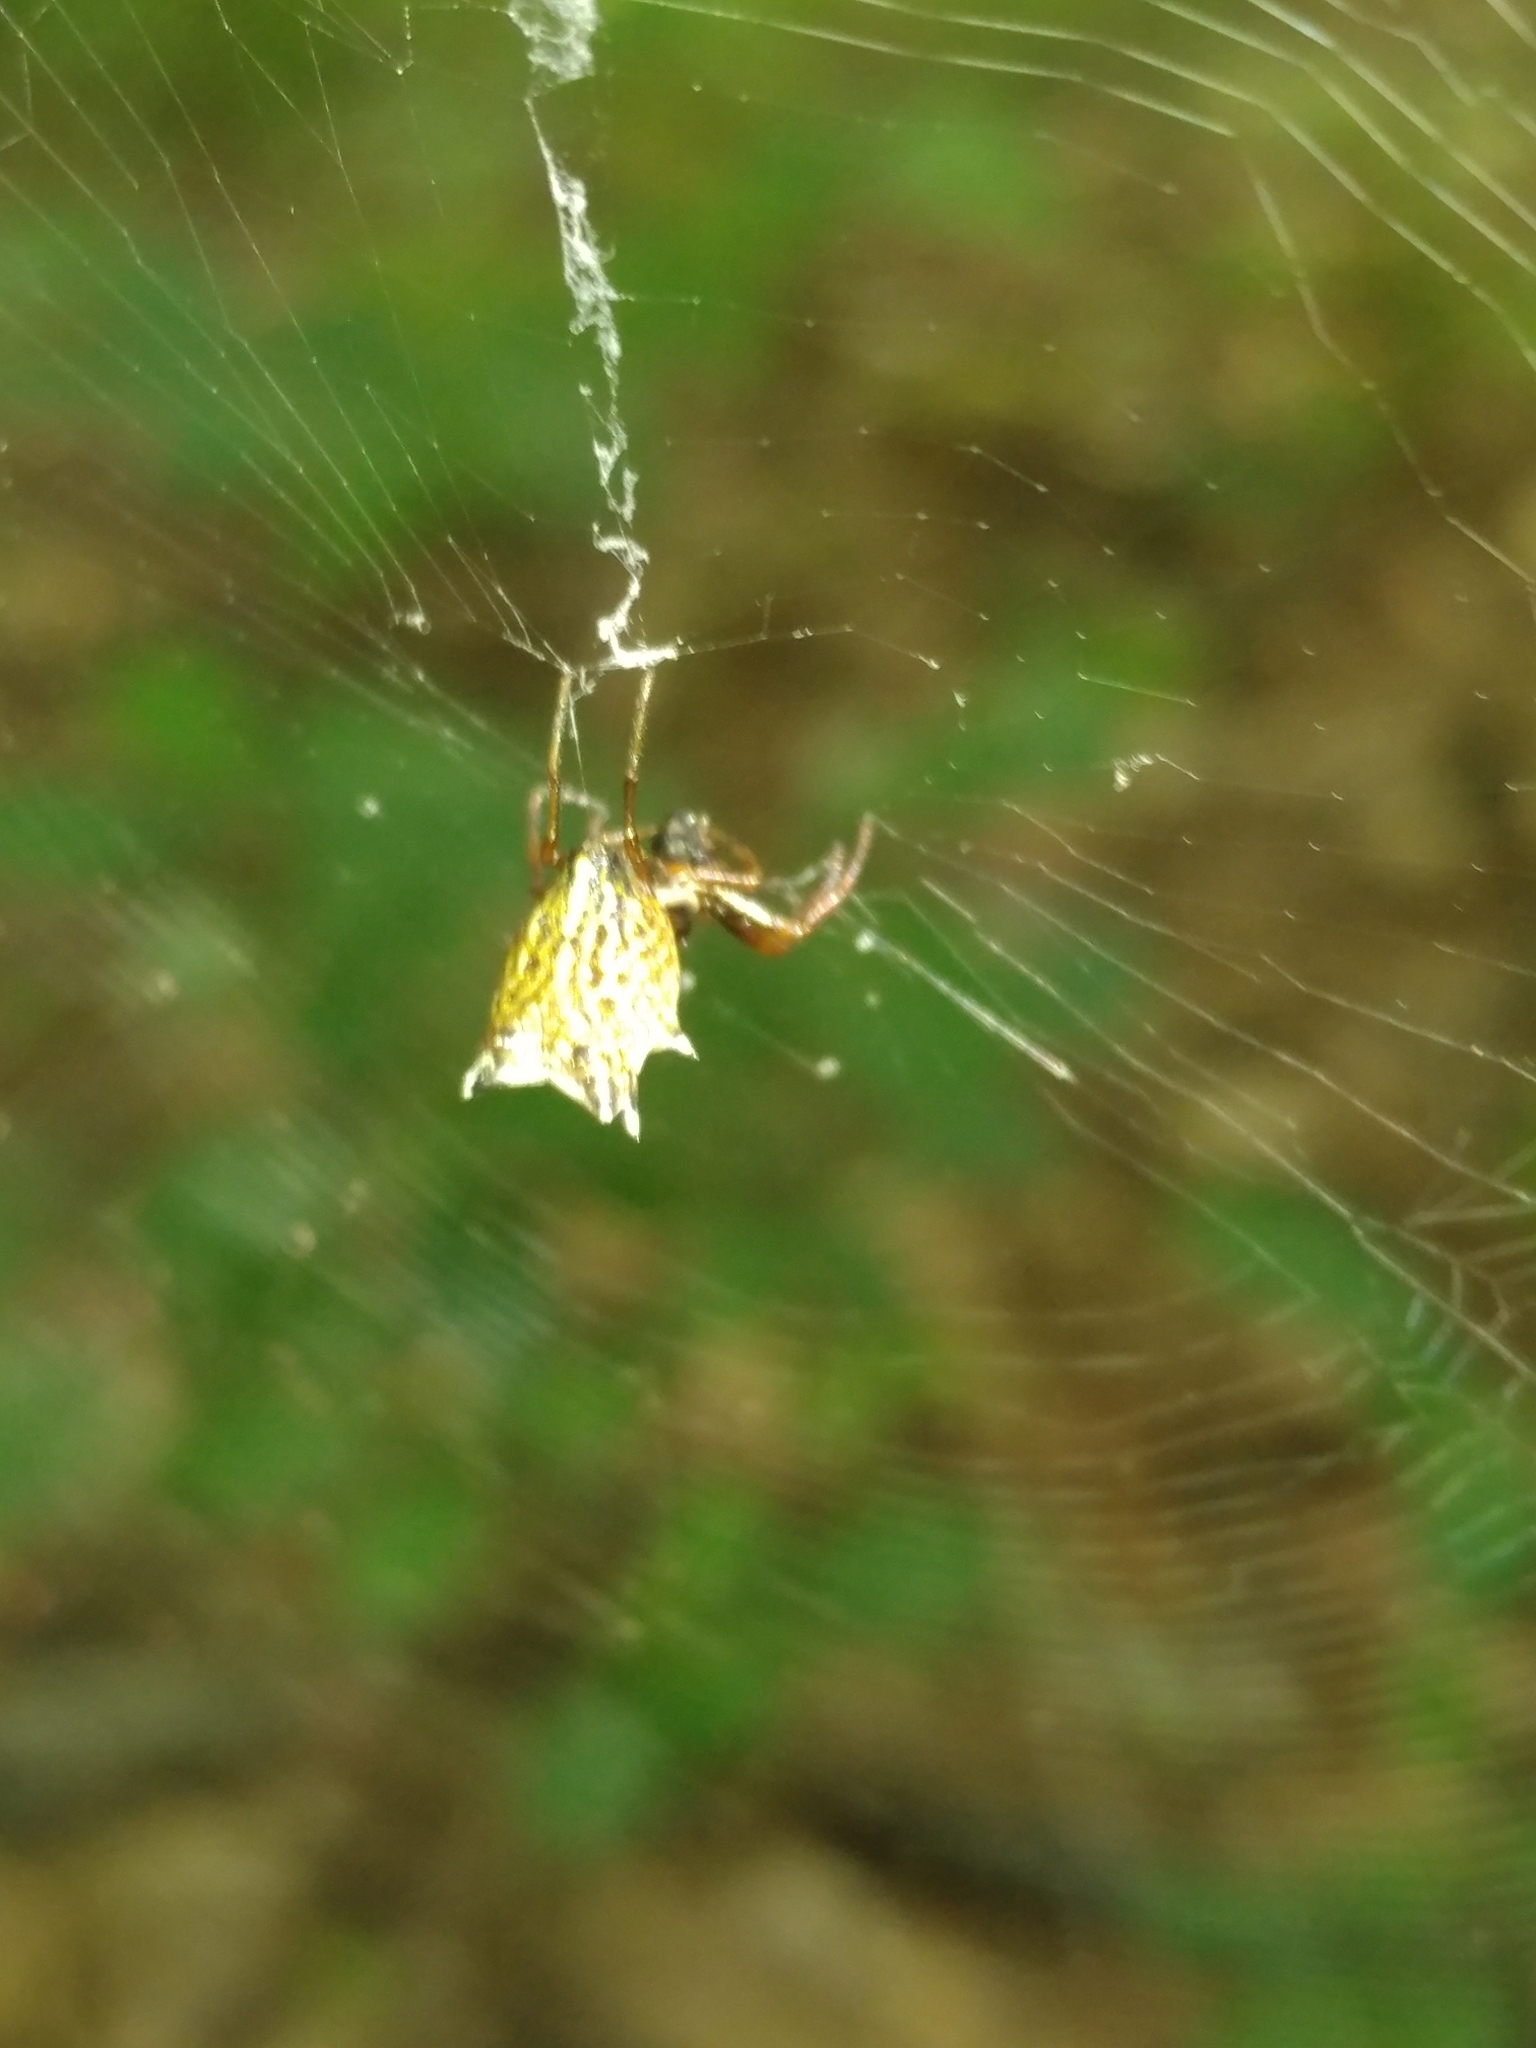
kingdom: Animalia
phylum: Arthropoda
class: Arachnida
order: Araneae
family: Araneidae
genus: Micrathena
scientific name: Micrathena gracilis
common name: Orb weavers
